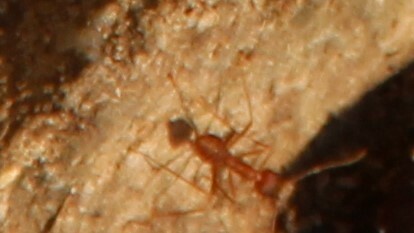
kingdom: Animalia
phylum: Arthropoda
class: Insecta
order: Hymenoptera
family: Formicidae
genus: Oecophylla
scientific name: Oecophylla smaragdina
